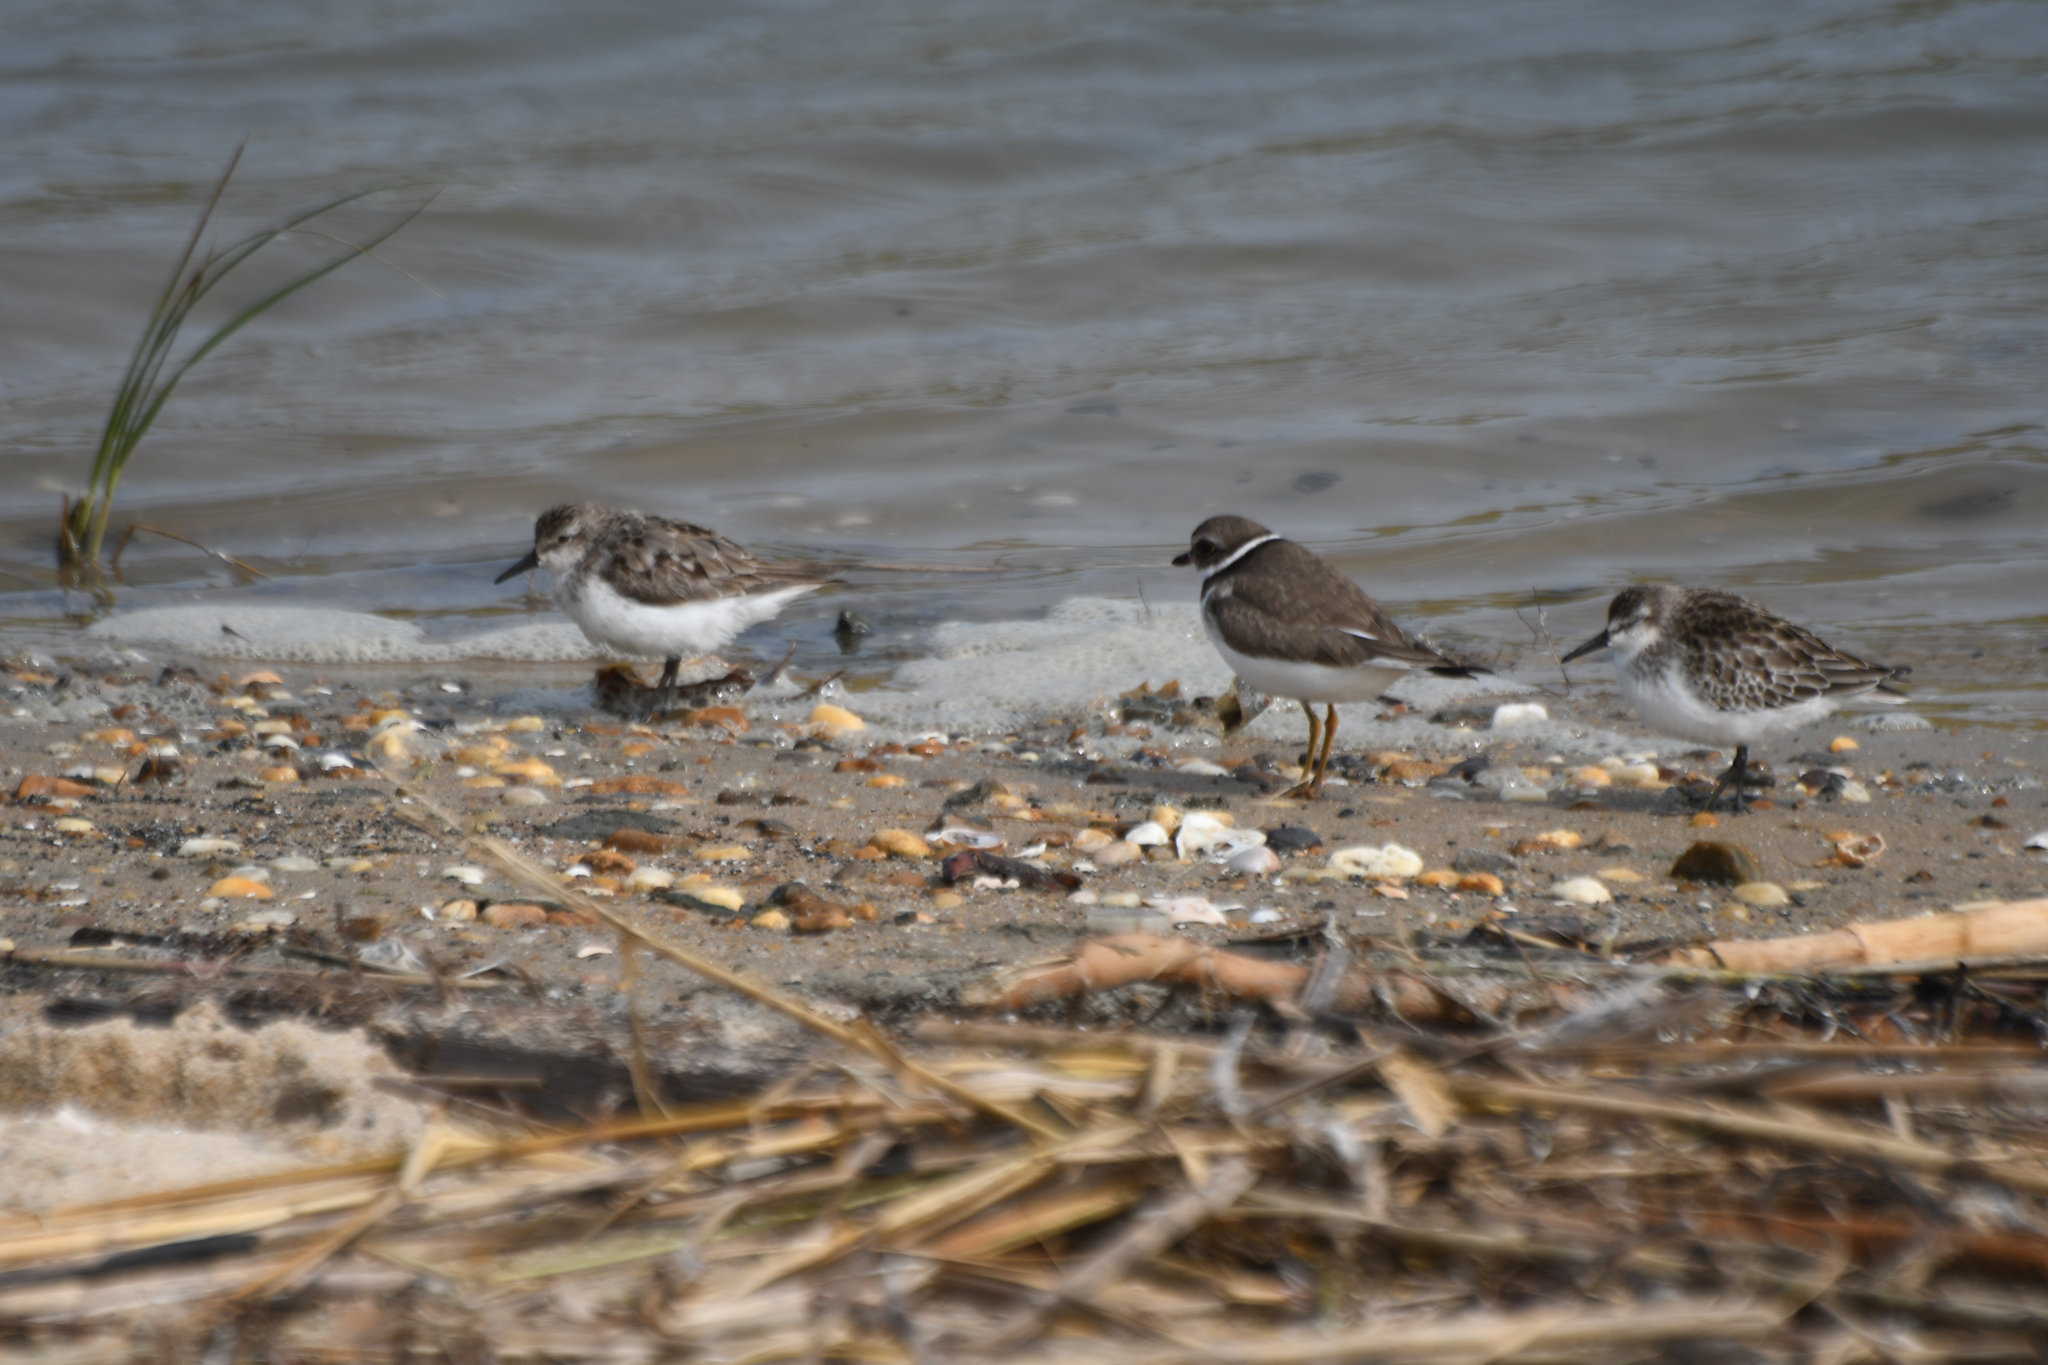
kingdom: Animalia
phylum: Chordata
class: Aves
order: Charadriiformes
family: Charadriidae
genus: Charadrius
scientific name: Charadrius semipalmatus
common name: Semipalmated plover
